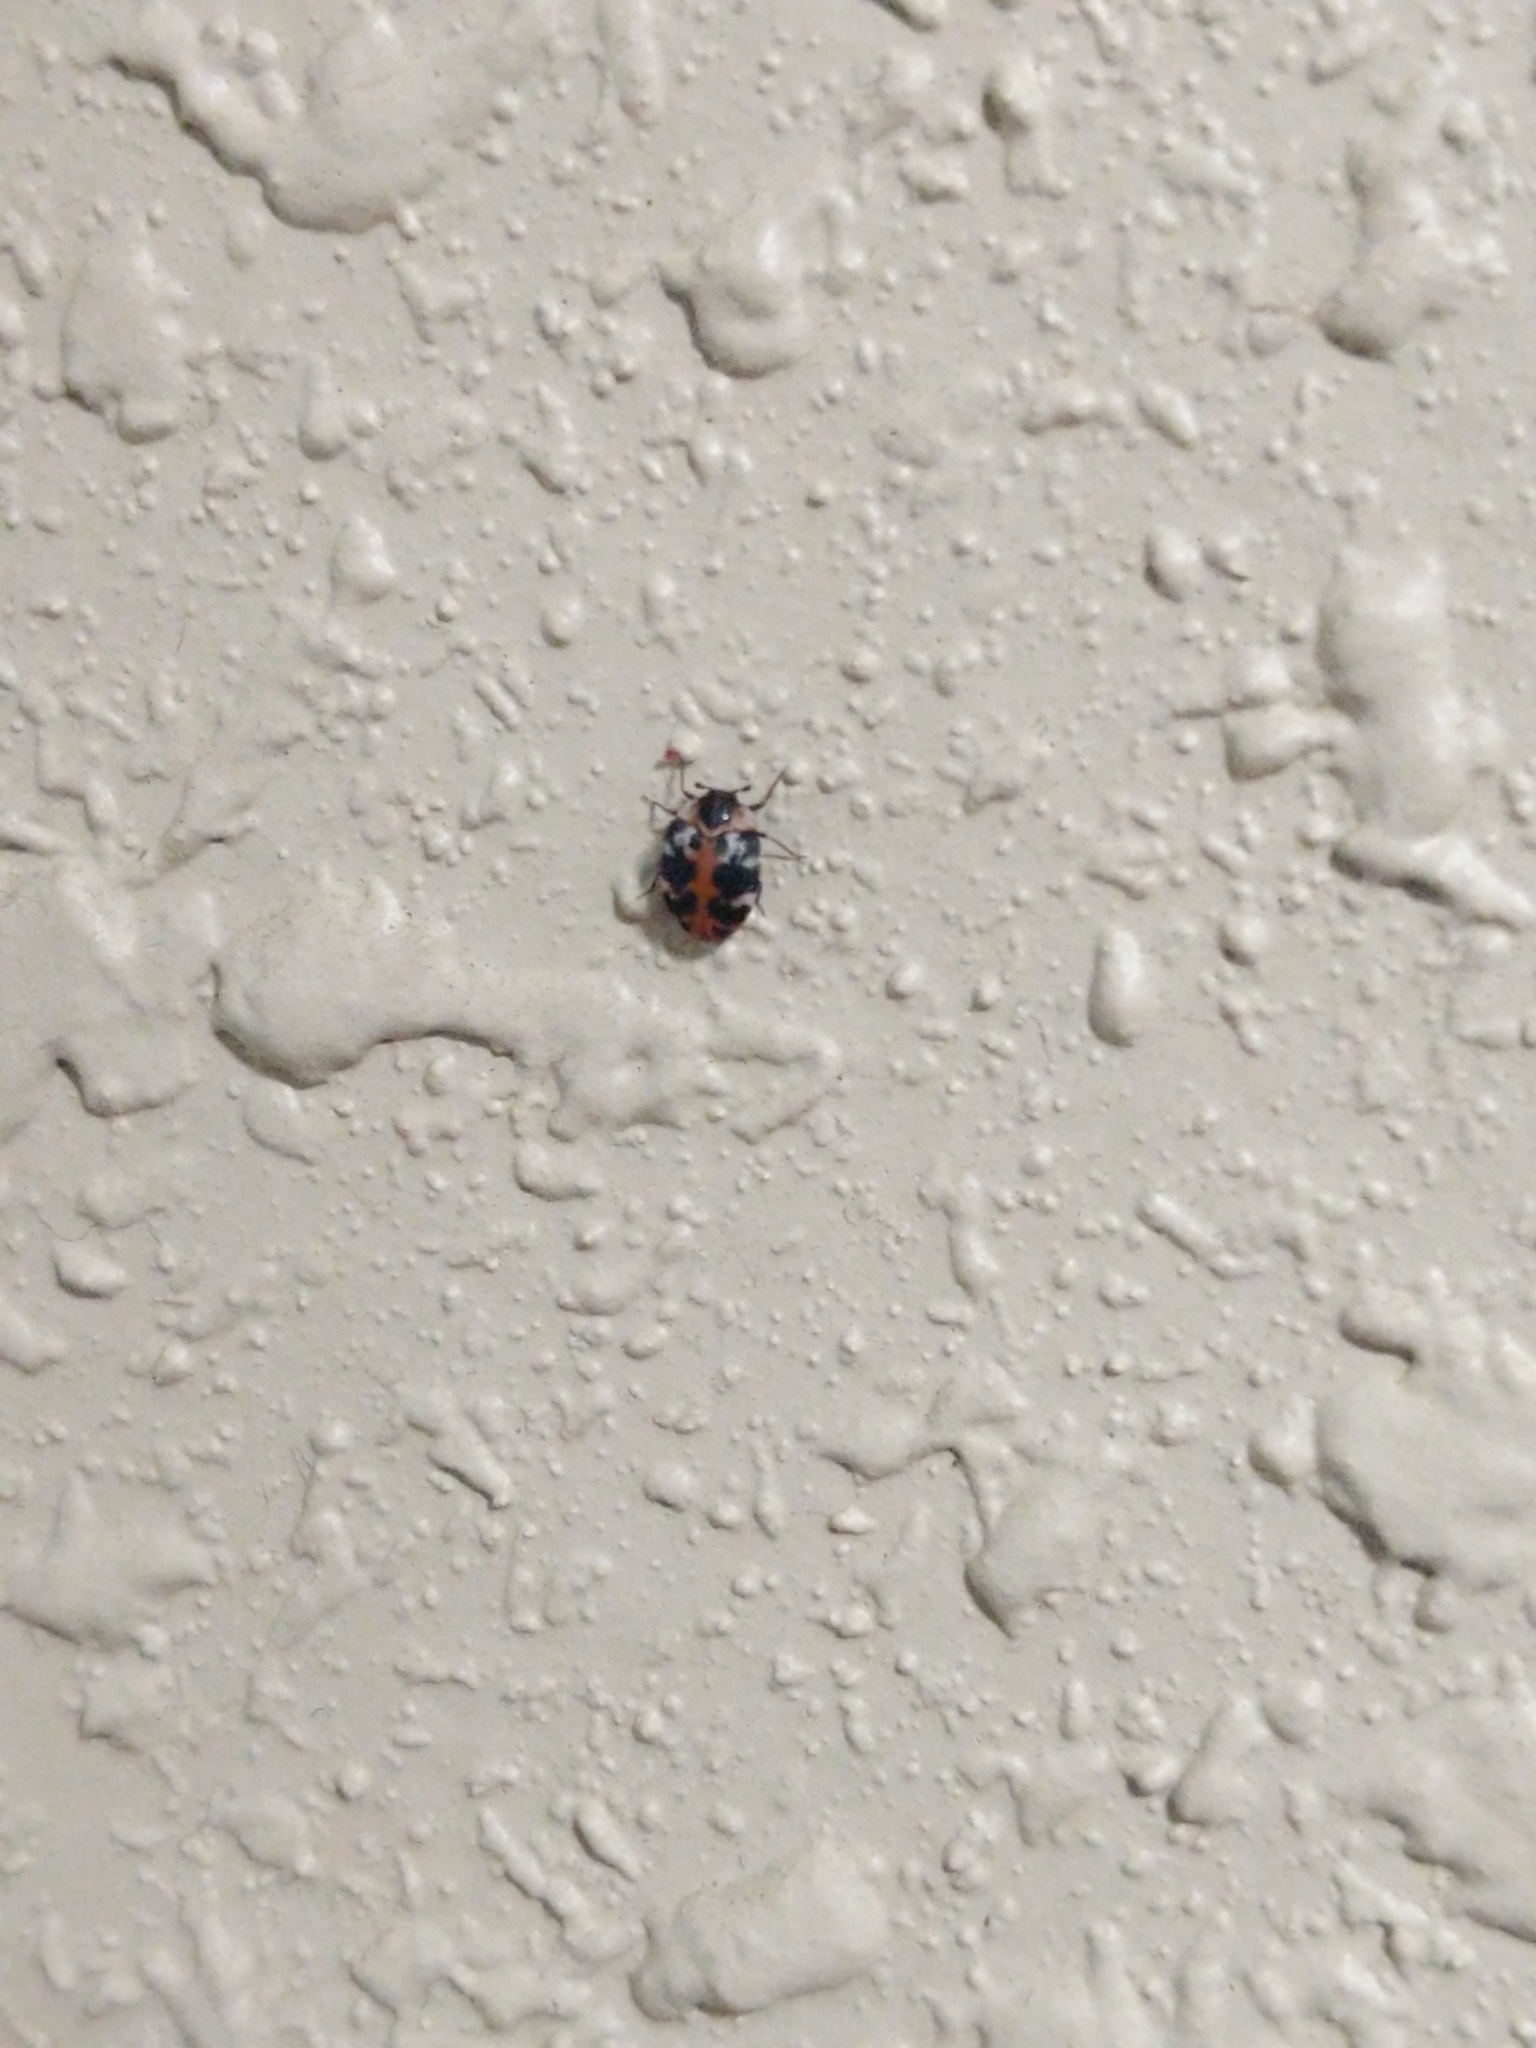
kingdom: Animalia
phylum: Arthropoda
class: Insecta
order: Coleoptera
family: Dermestidae
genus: Anthrenus
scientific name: Anthrenus scrophulariae
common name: Buffalo carpet beetle
